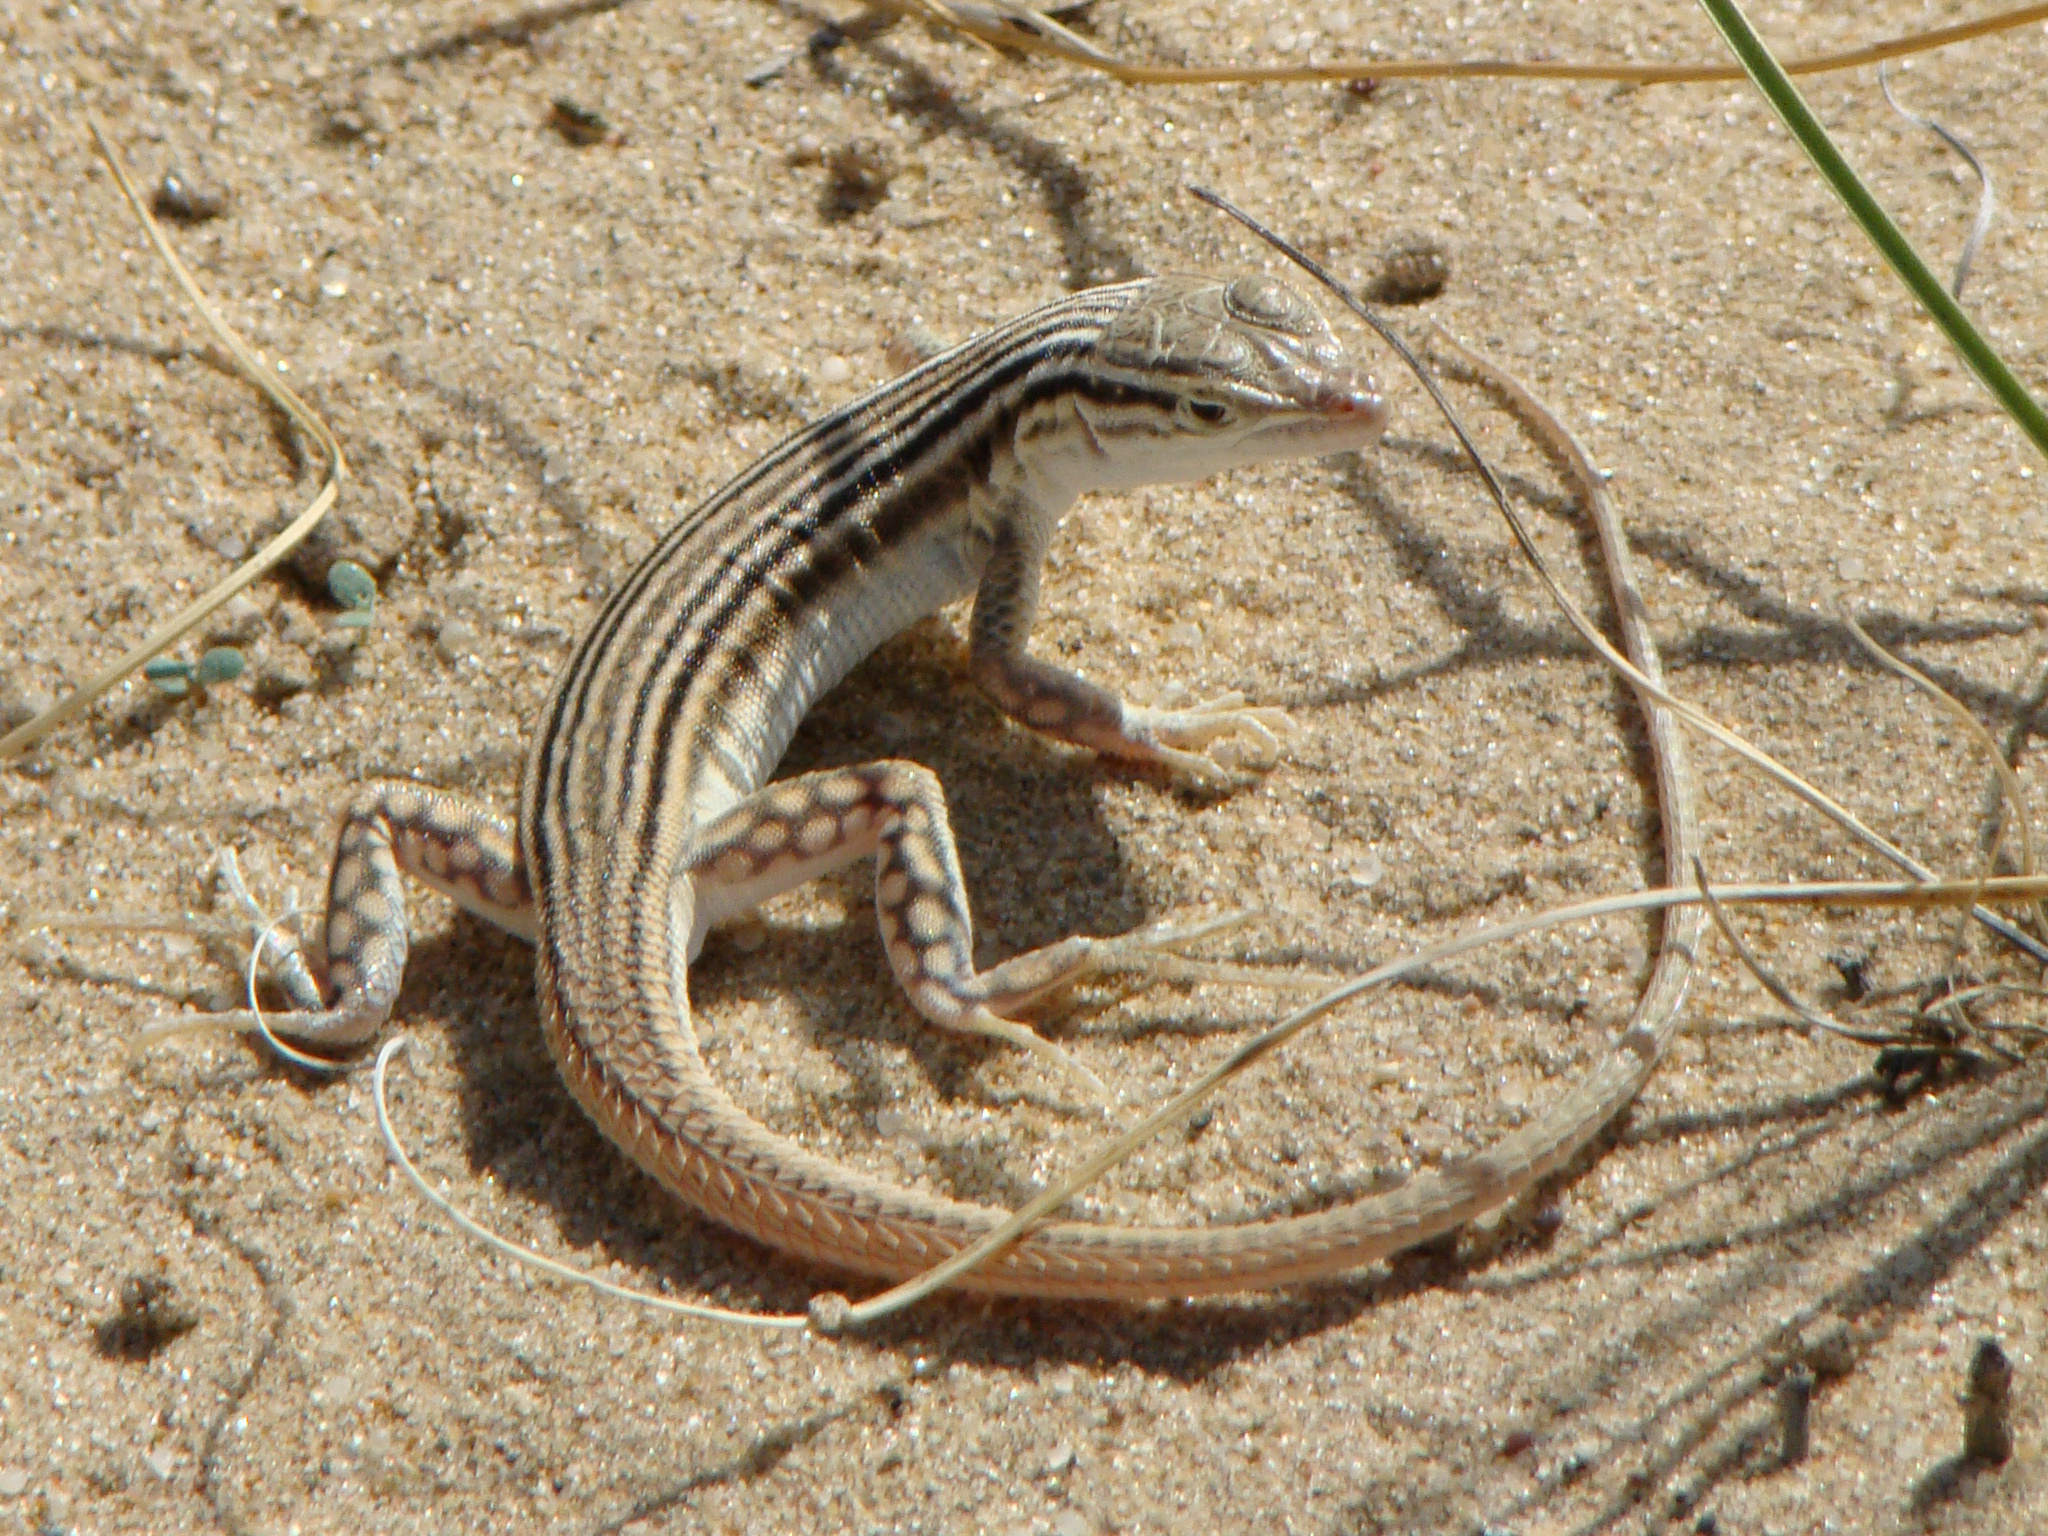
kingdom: Animalia
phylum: Chordata
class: Squamata
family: Lacertidae
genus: Eremias
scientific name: Eremias lineolata
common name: Striped racerunner
